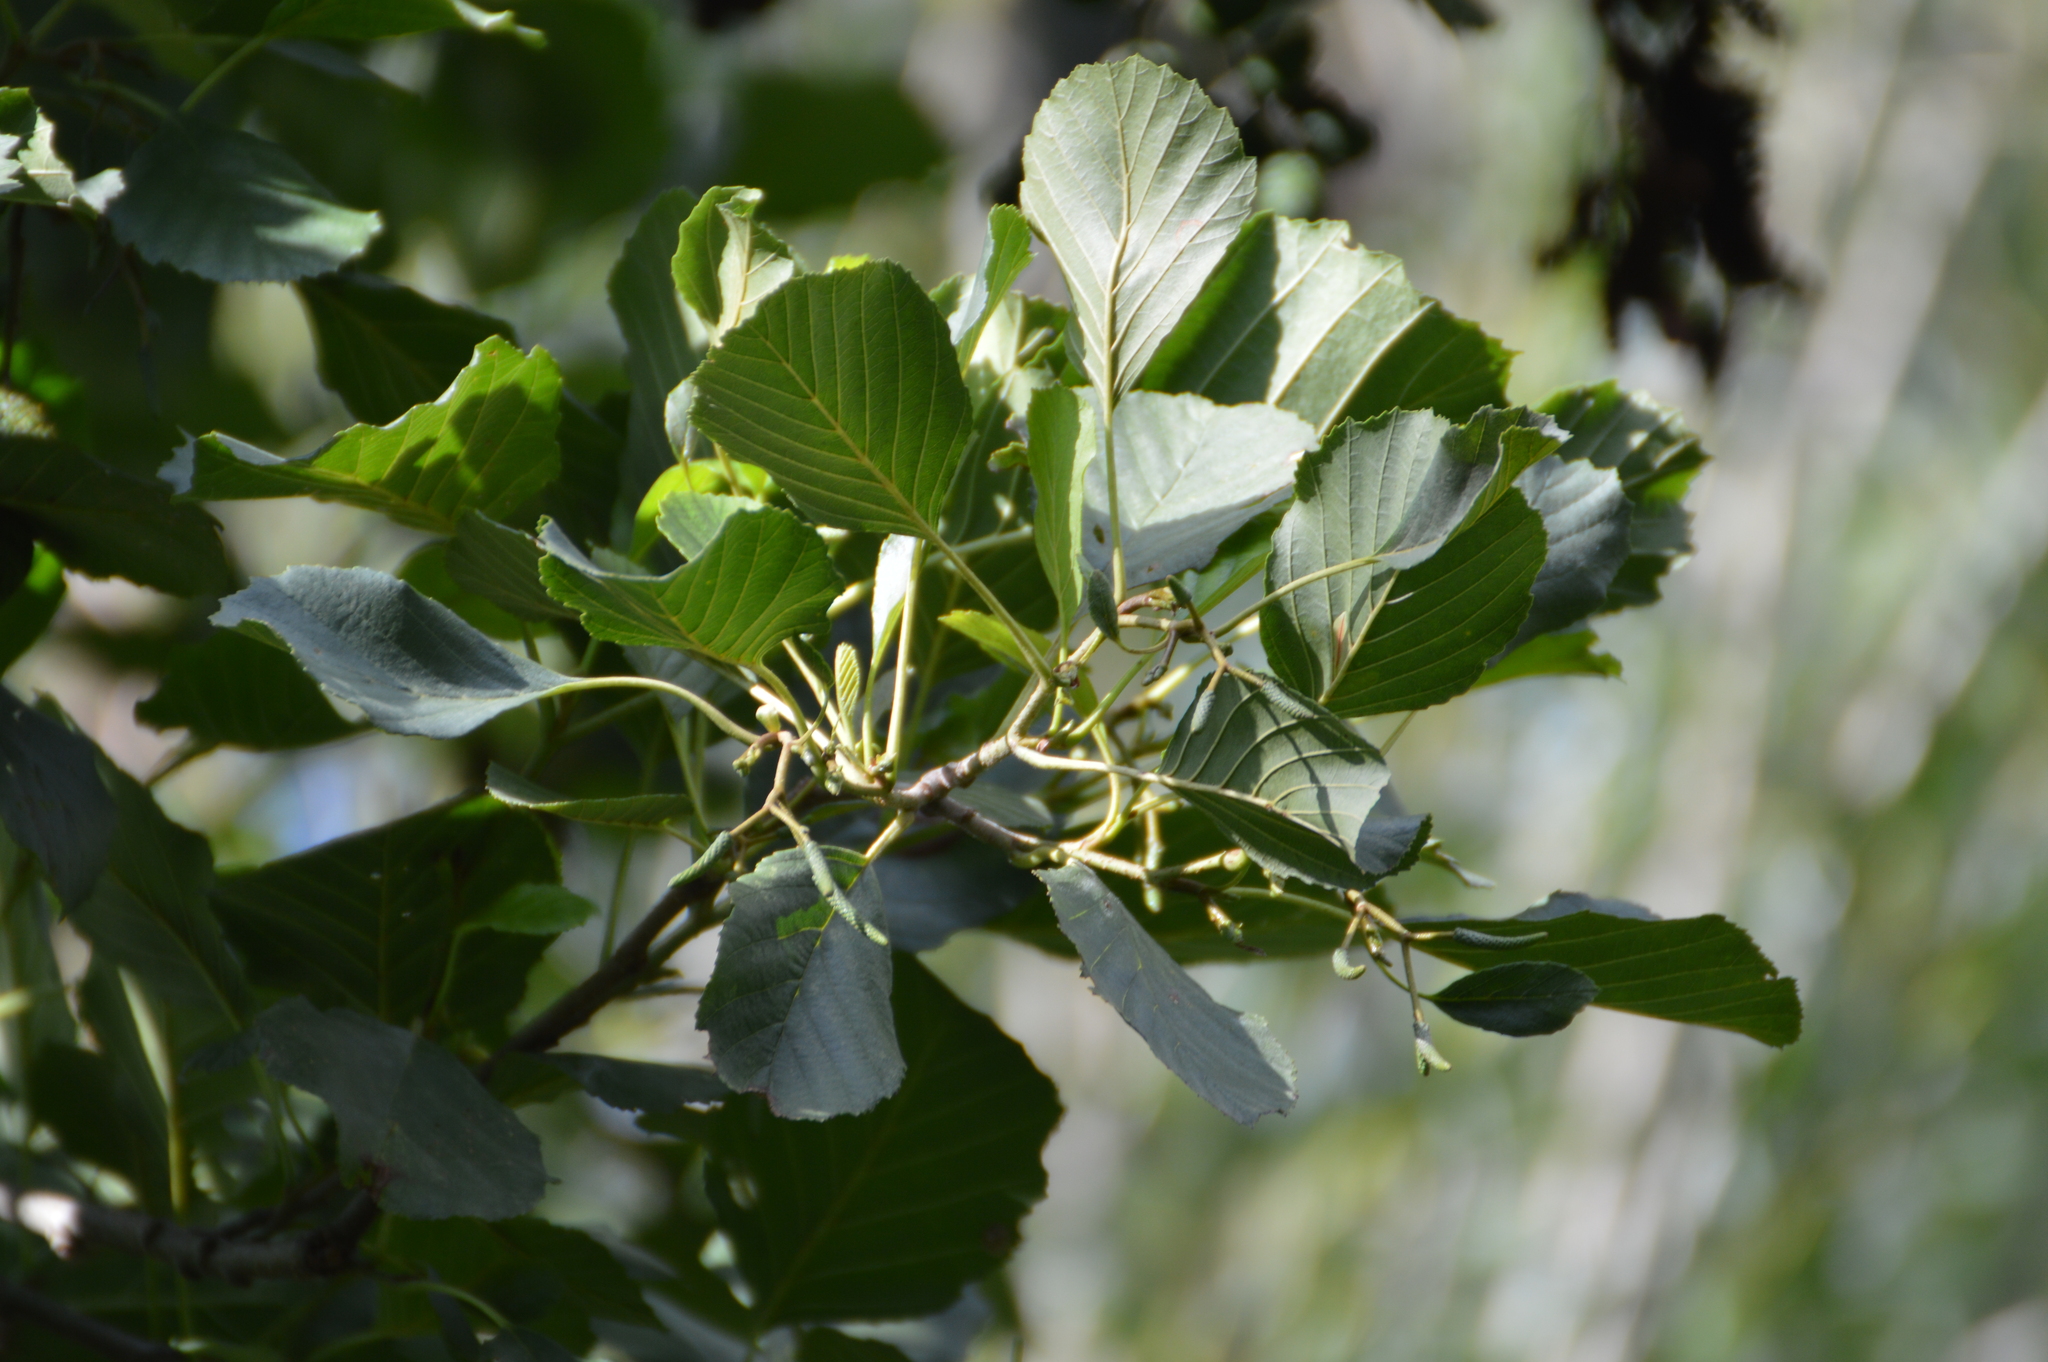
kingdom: Plantae
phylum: Tracheophyta
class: Magnoliopsida
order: Fagales
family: Betulaceae
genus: Alnus
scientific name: Alnus glutinosa
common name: Black alder
